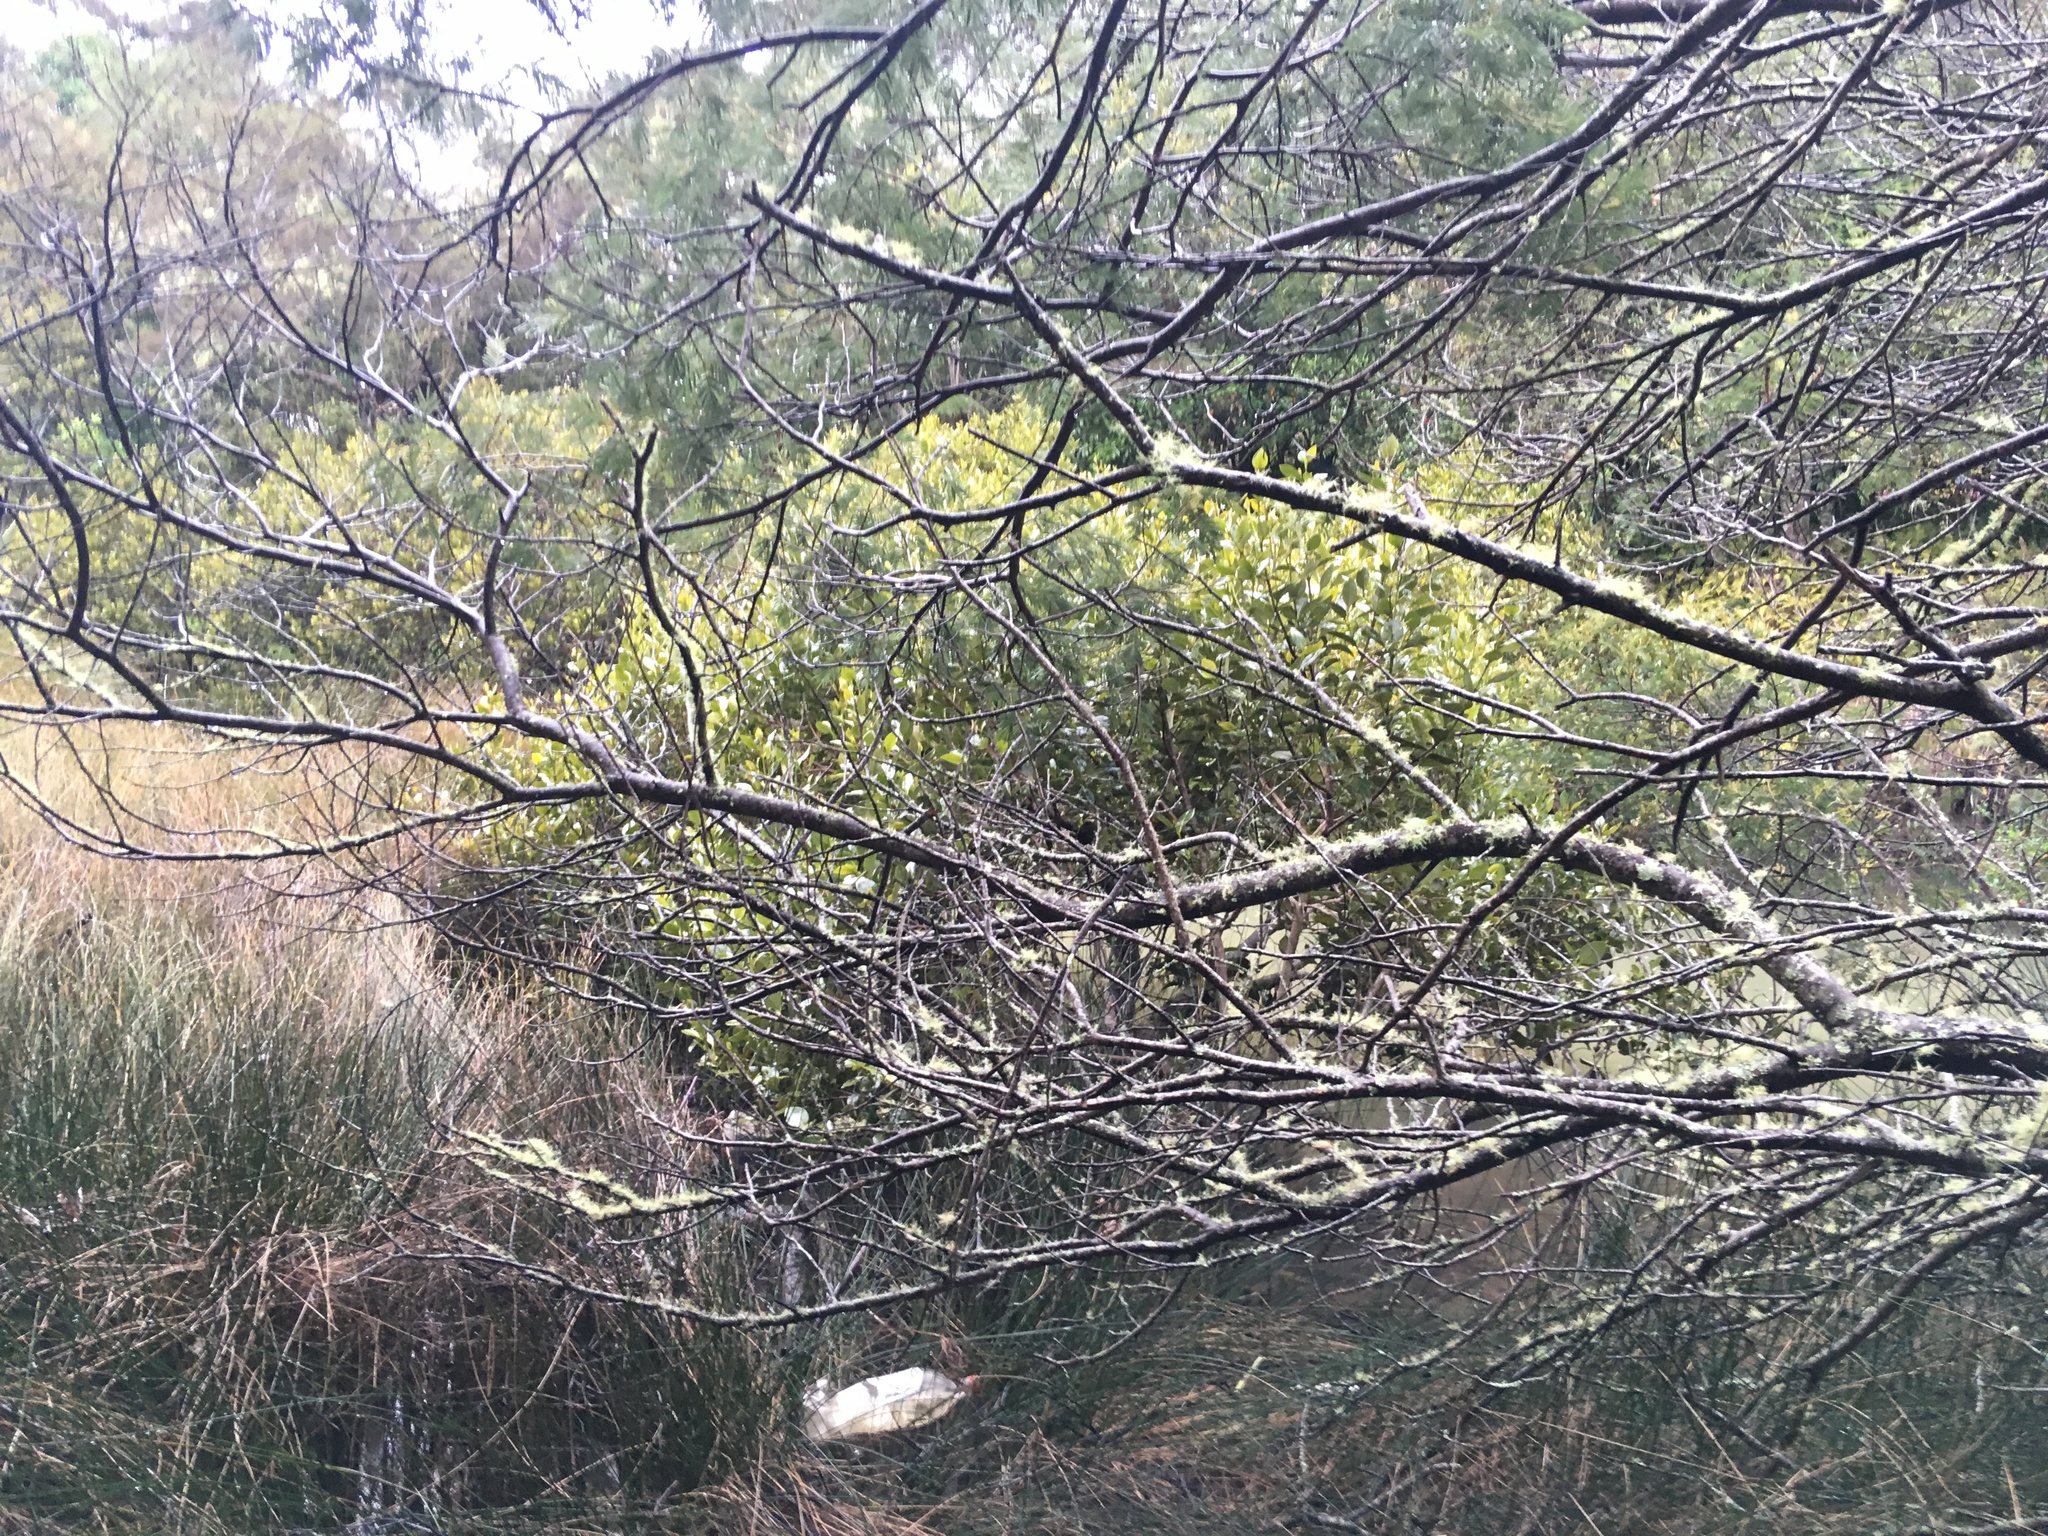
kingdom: Plantae
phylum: Tracheophyta
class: Magnoliopsida
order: Lamiales
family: Acanthaceae
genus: Avicennia
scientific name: Avicennia marina
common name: Gray mangrove
